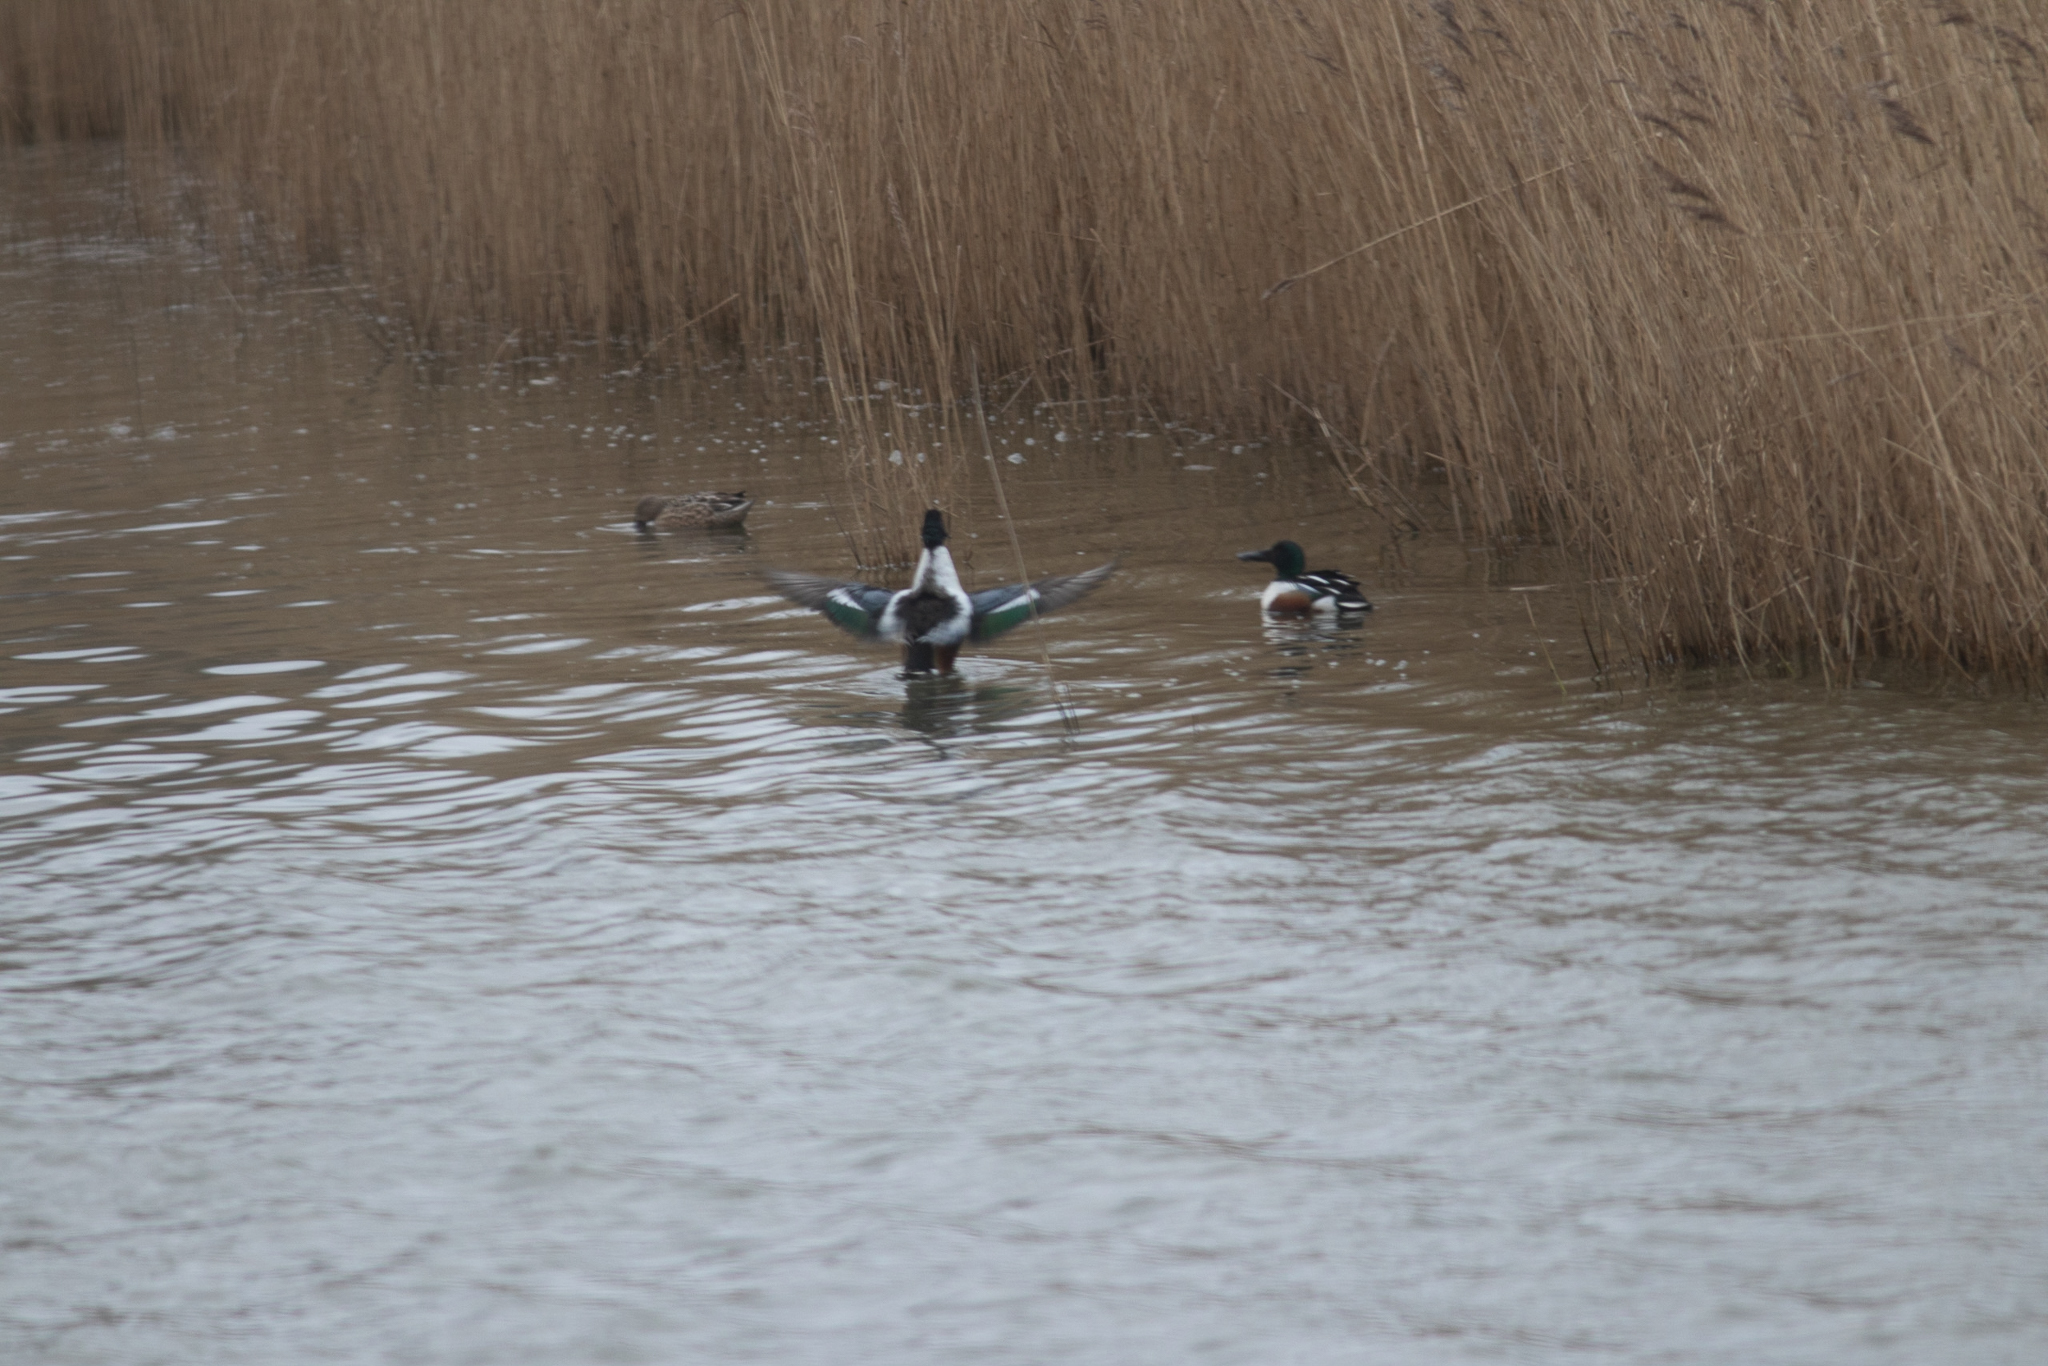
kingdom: Animalia
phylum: Chordata
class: Aves
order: Anseriformes
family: Anatidae
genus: Spatula
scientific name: Spatula clypeata
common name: Northern shoveler
